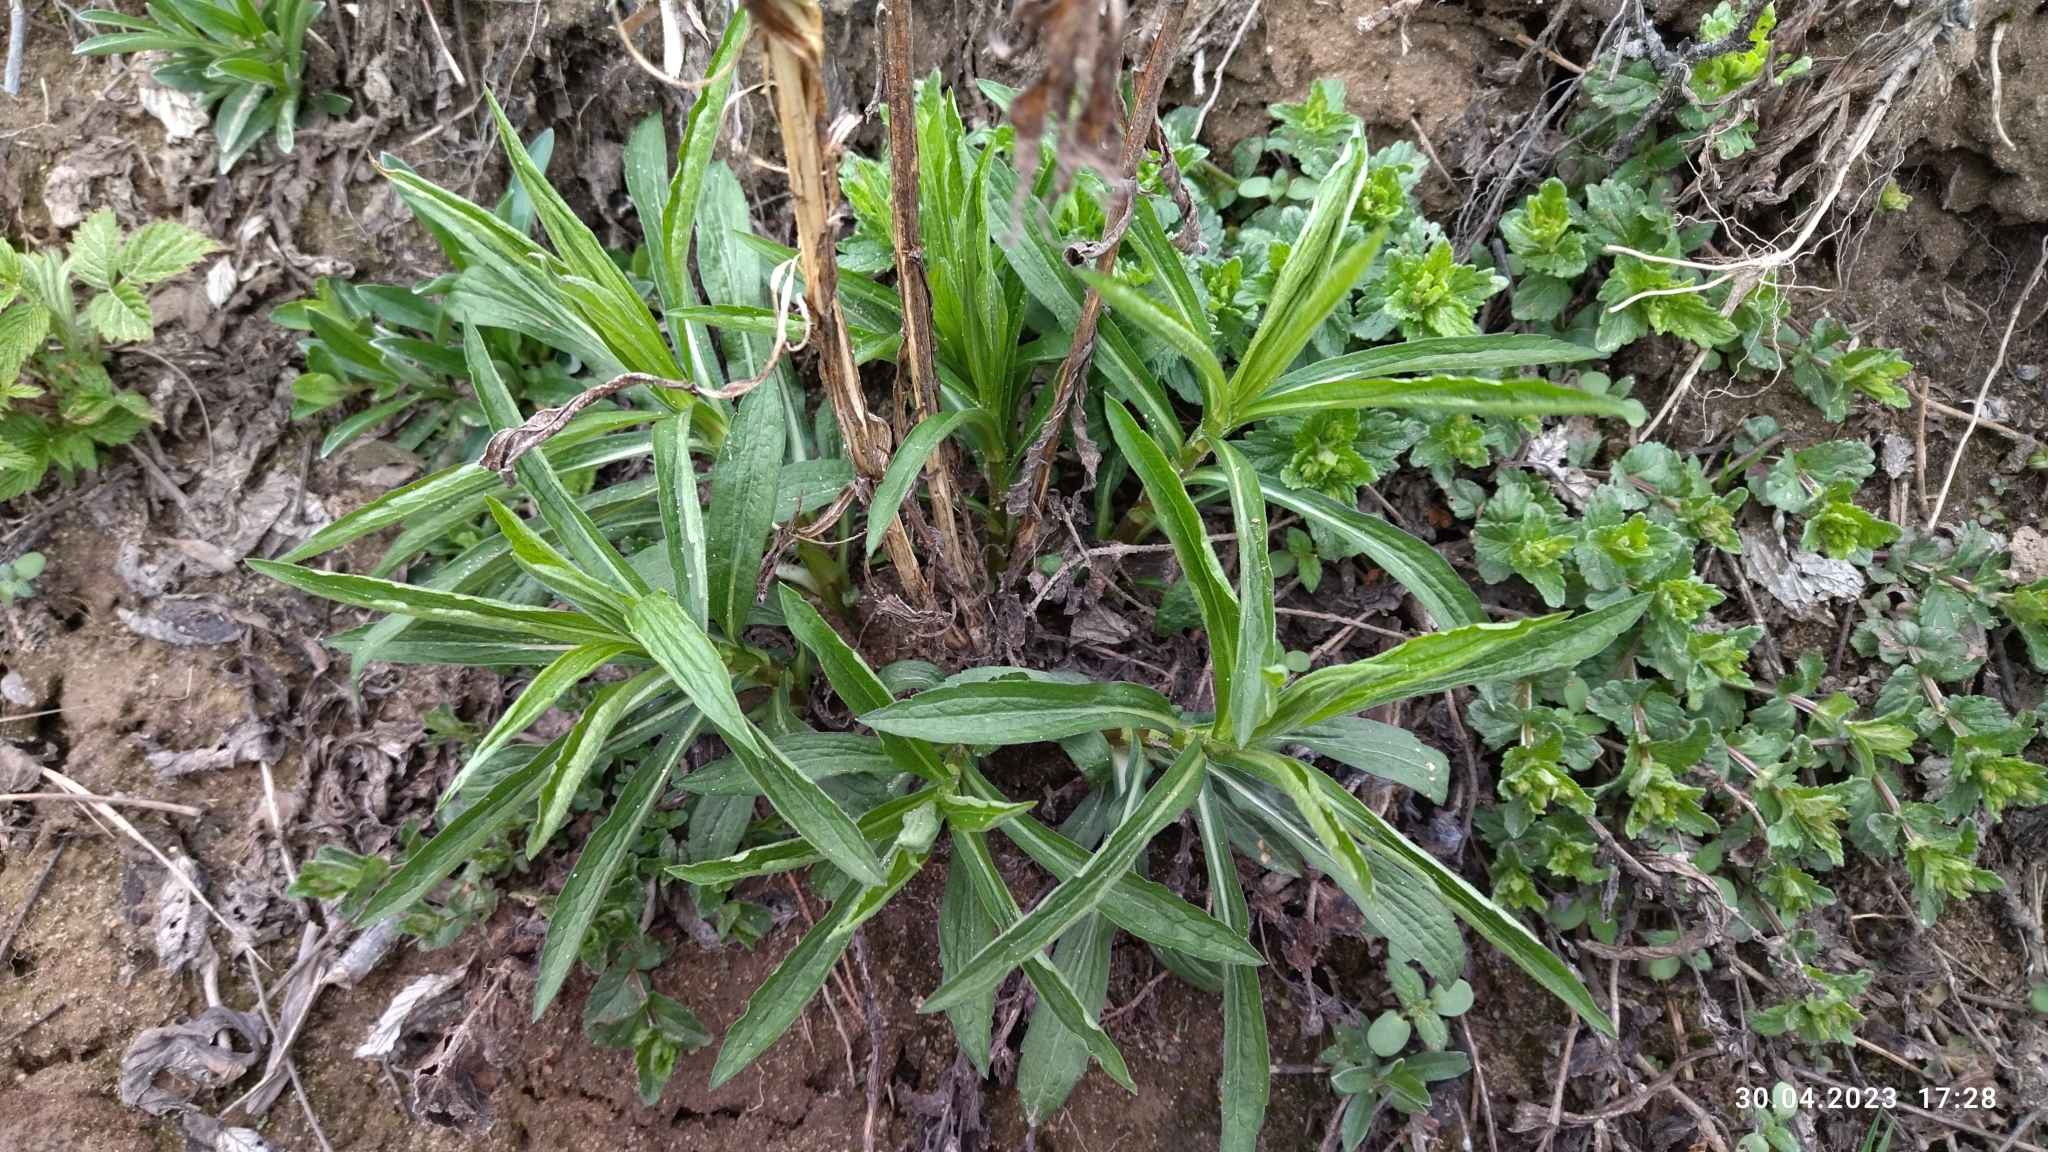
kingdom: Plantae
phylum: Tracheophyta
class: Magnoliopsida
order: Asterales
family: Asteraceae
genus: Solidago
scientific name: Solidago canadensis
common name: Canada goldenrod
